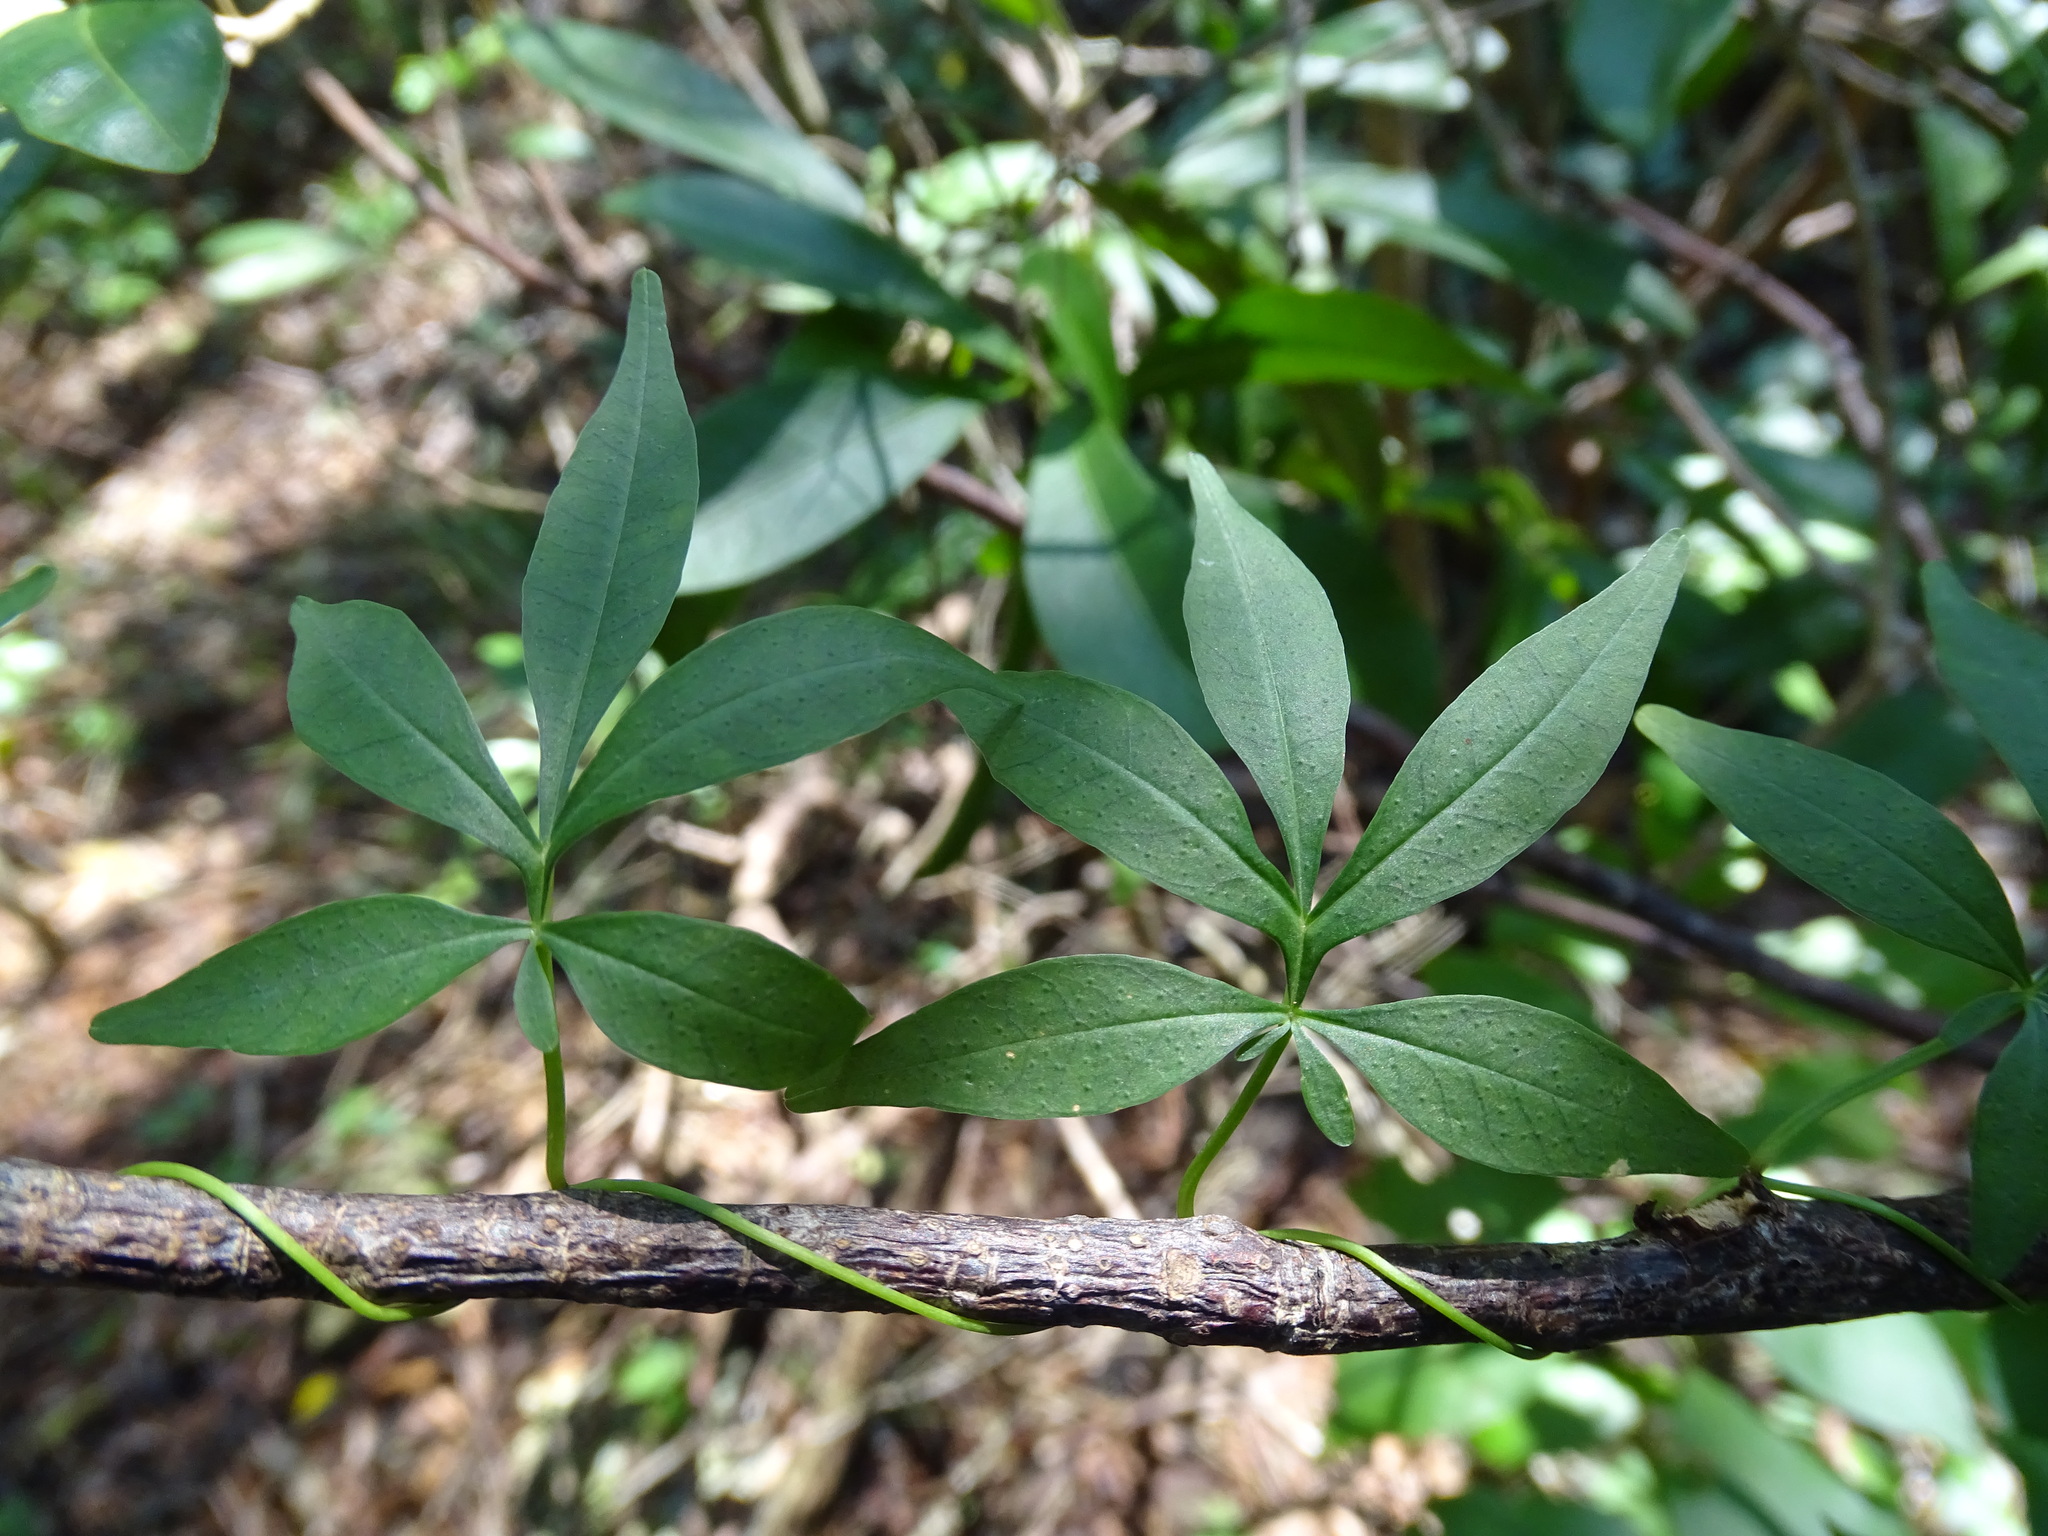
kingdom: Plantae
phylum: Tracheophyta
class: Magnoliopsida
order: Solanales
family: Convolvulaceae
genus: Ipomoea
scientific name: Ipomoea heterodoxa
